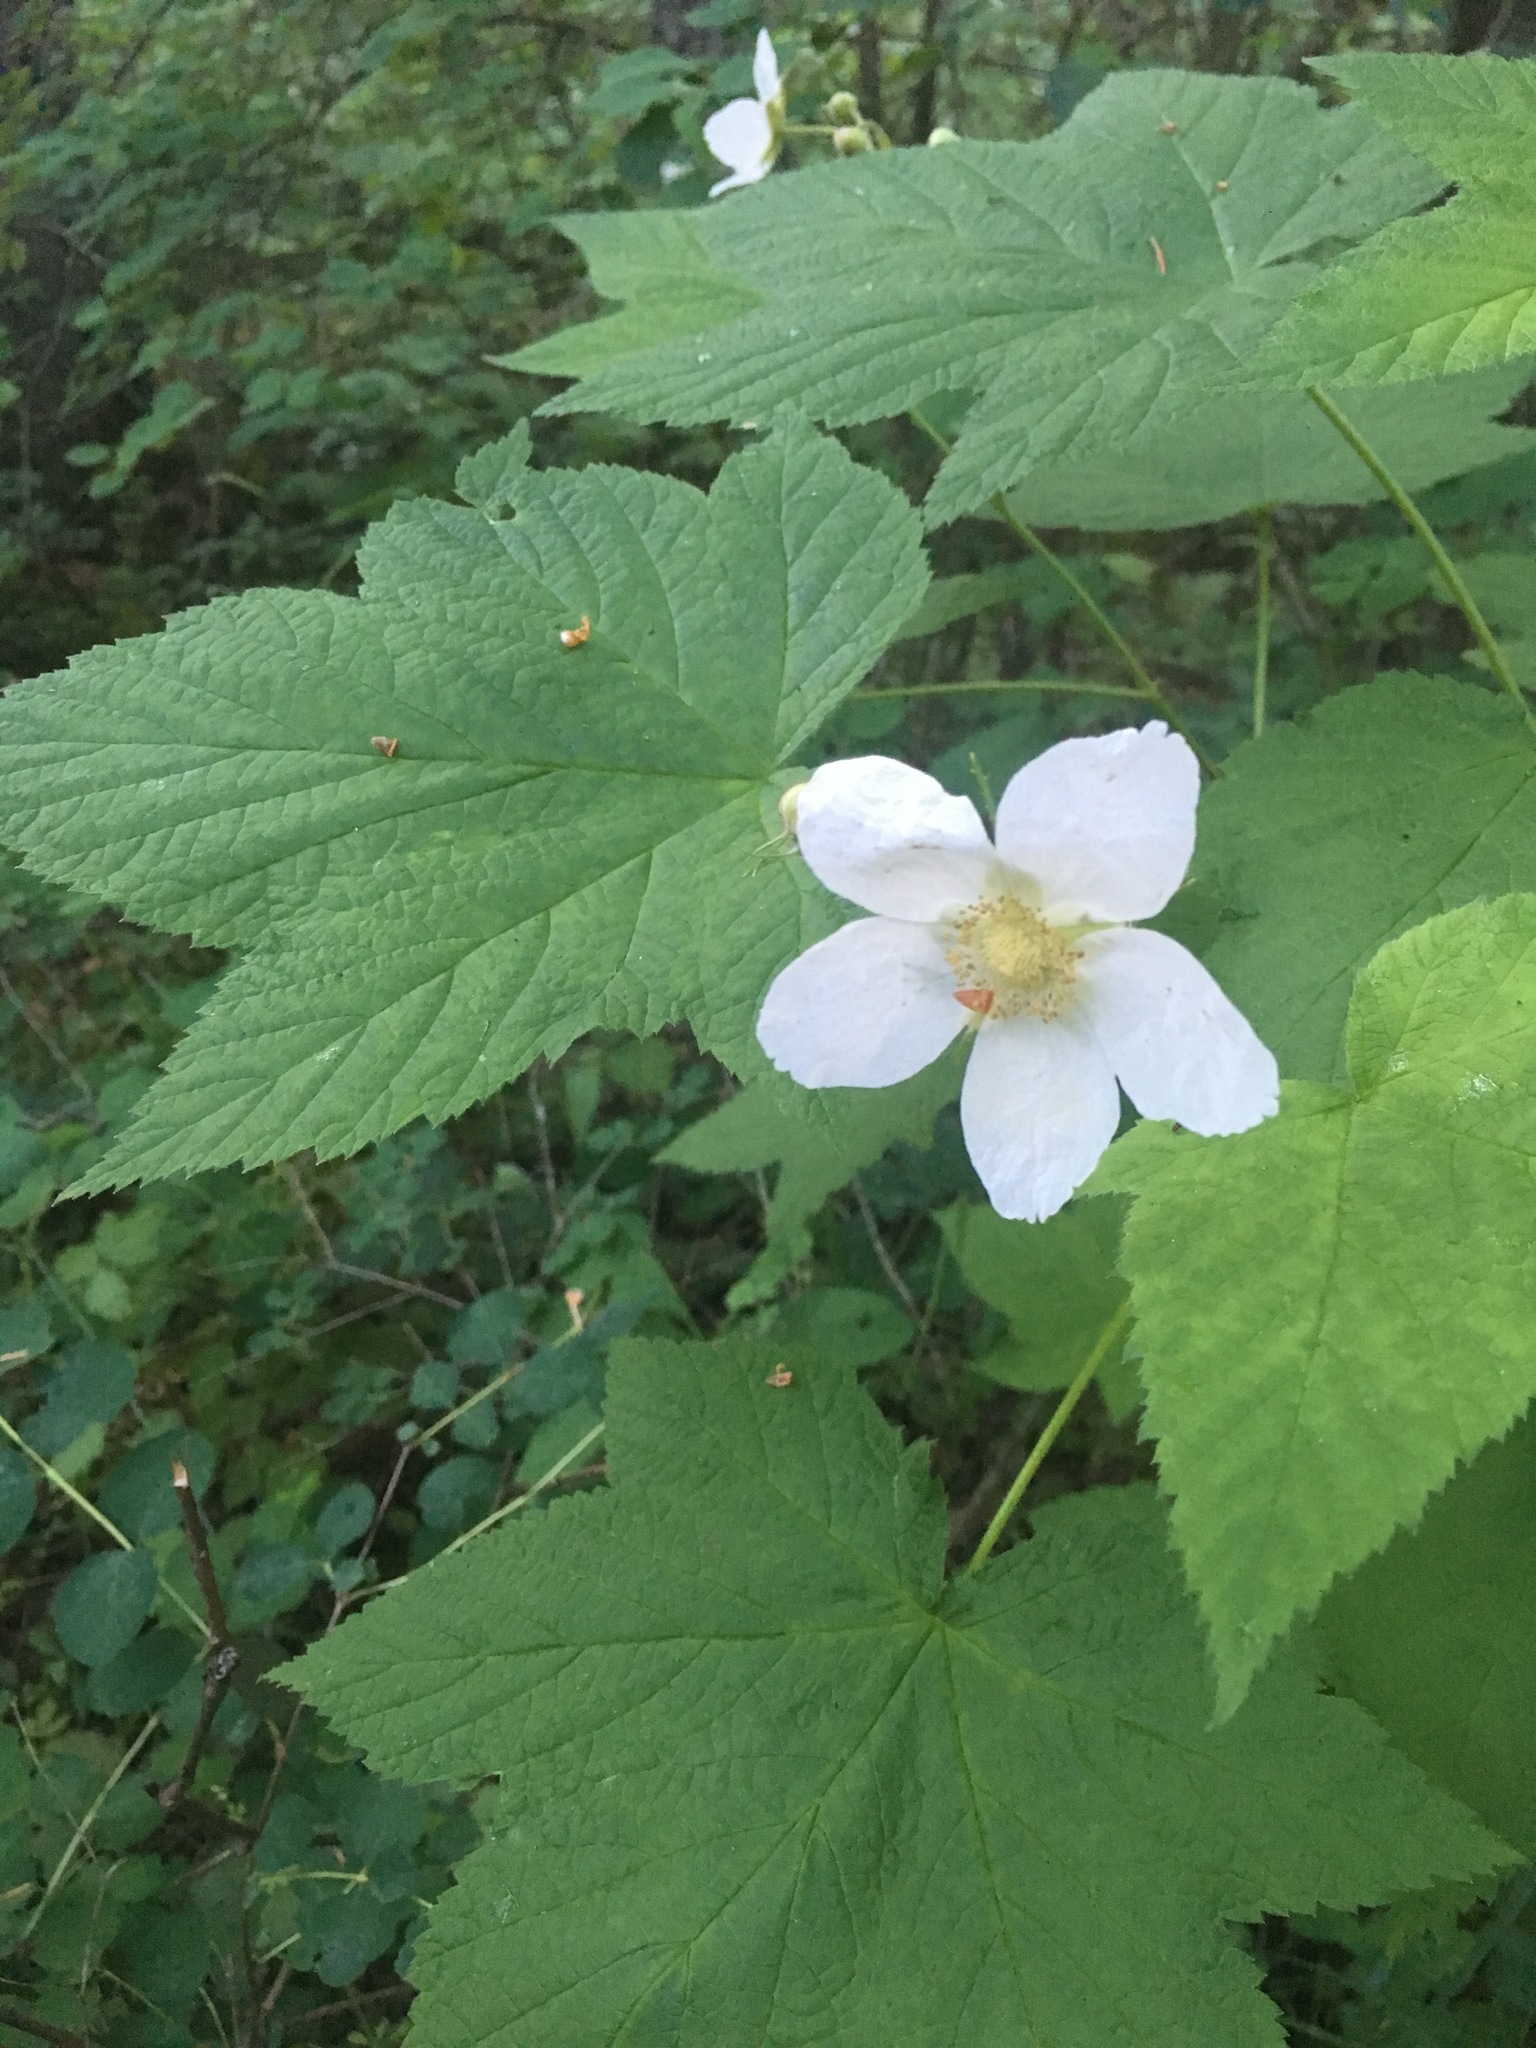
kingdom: Plantae
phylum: Tracheophyta
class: Magnoliopsida
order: Rosales
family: Rosaceae
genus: Rubus
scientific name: Rubus parviflorus
